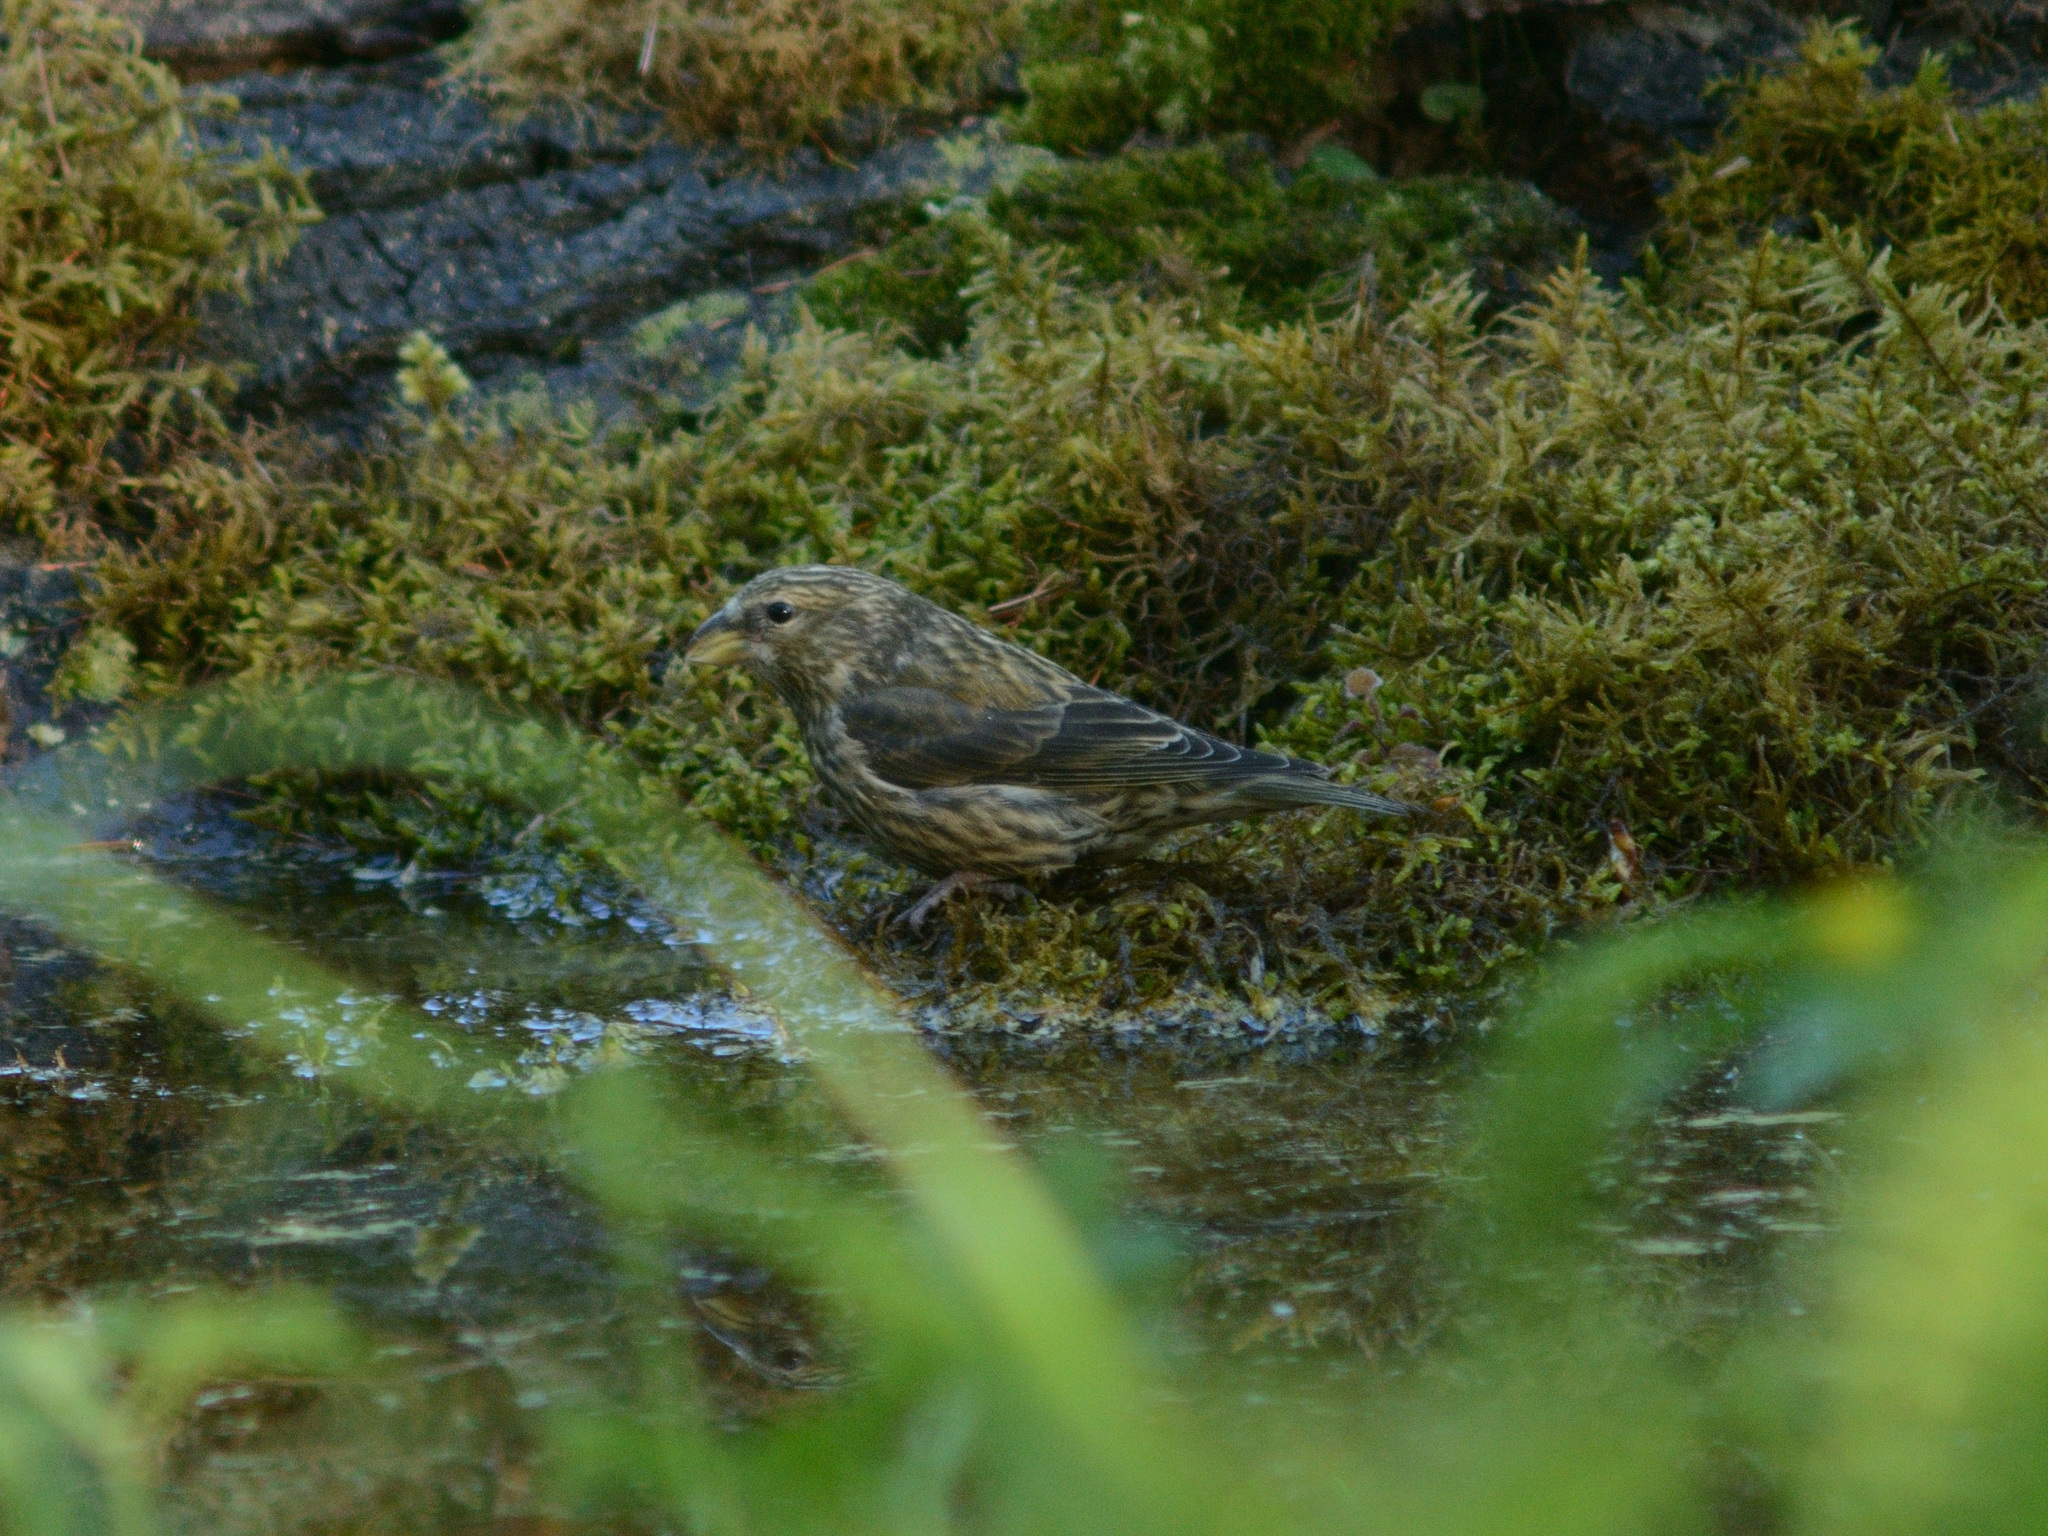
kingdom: Animalia
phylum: Chordata
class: Aves
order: Passeriformes
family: Fringillidae
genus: Loxia
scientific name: Loxia curvirostra
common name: Red crossbill
